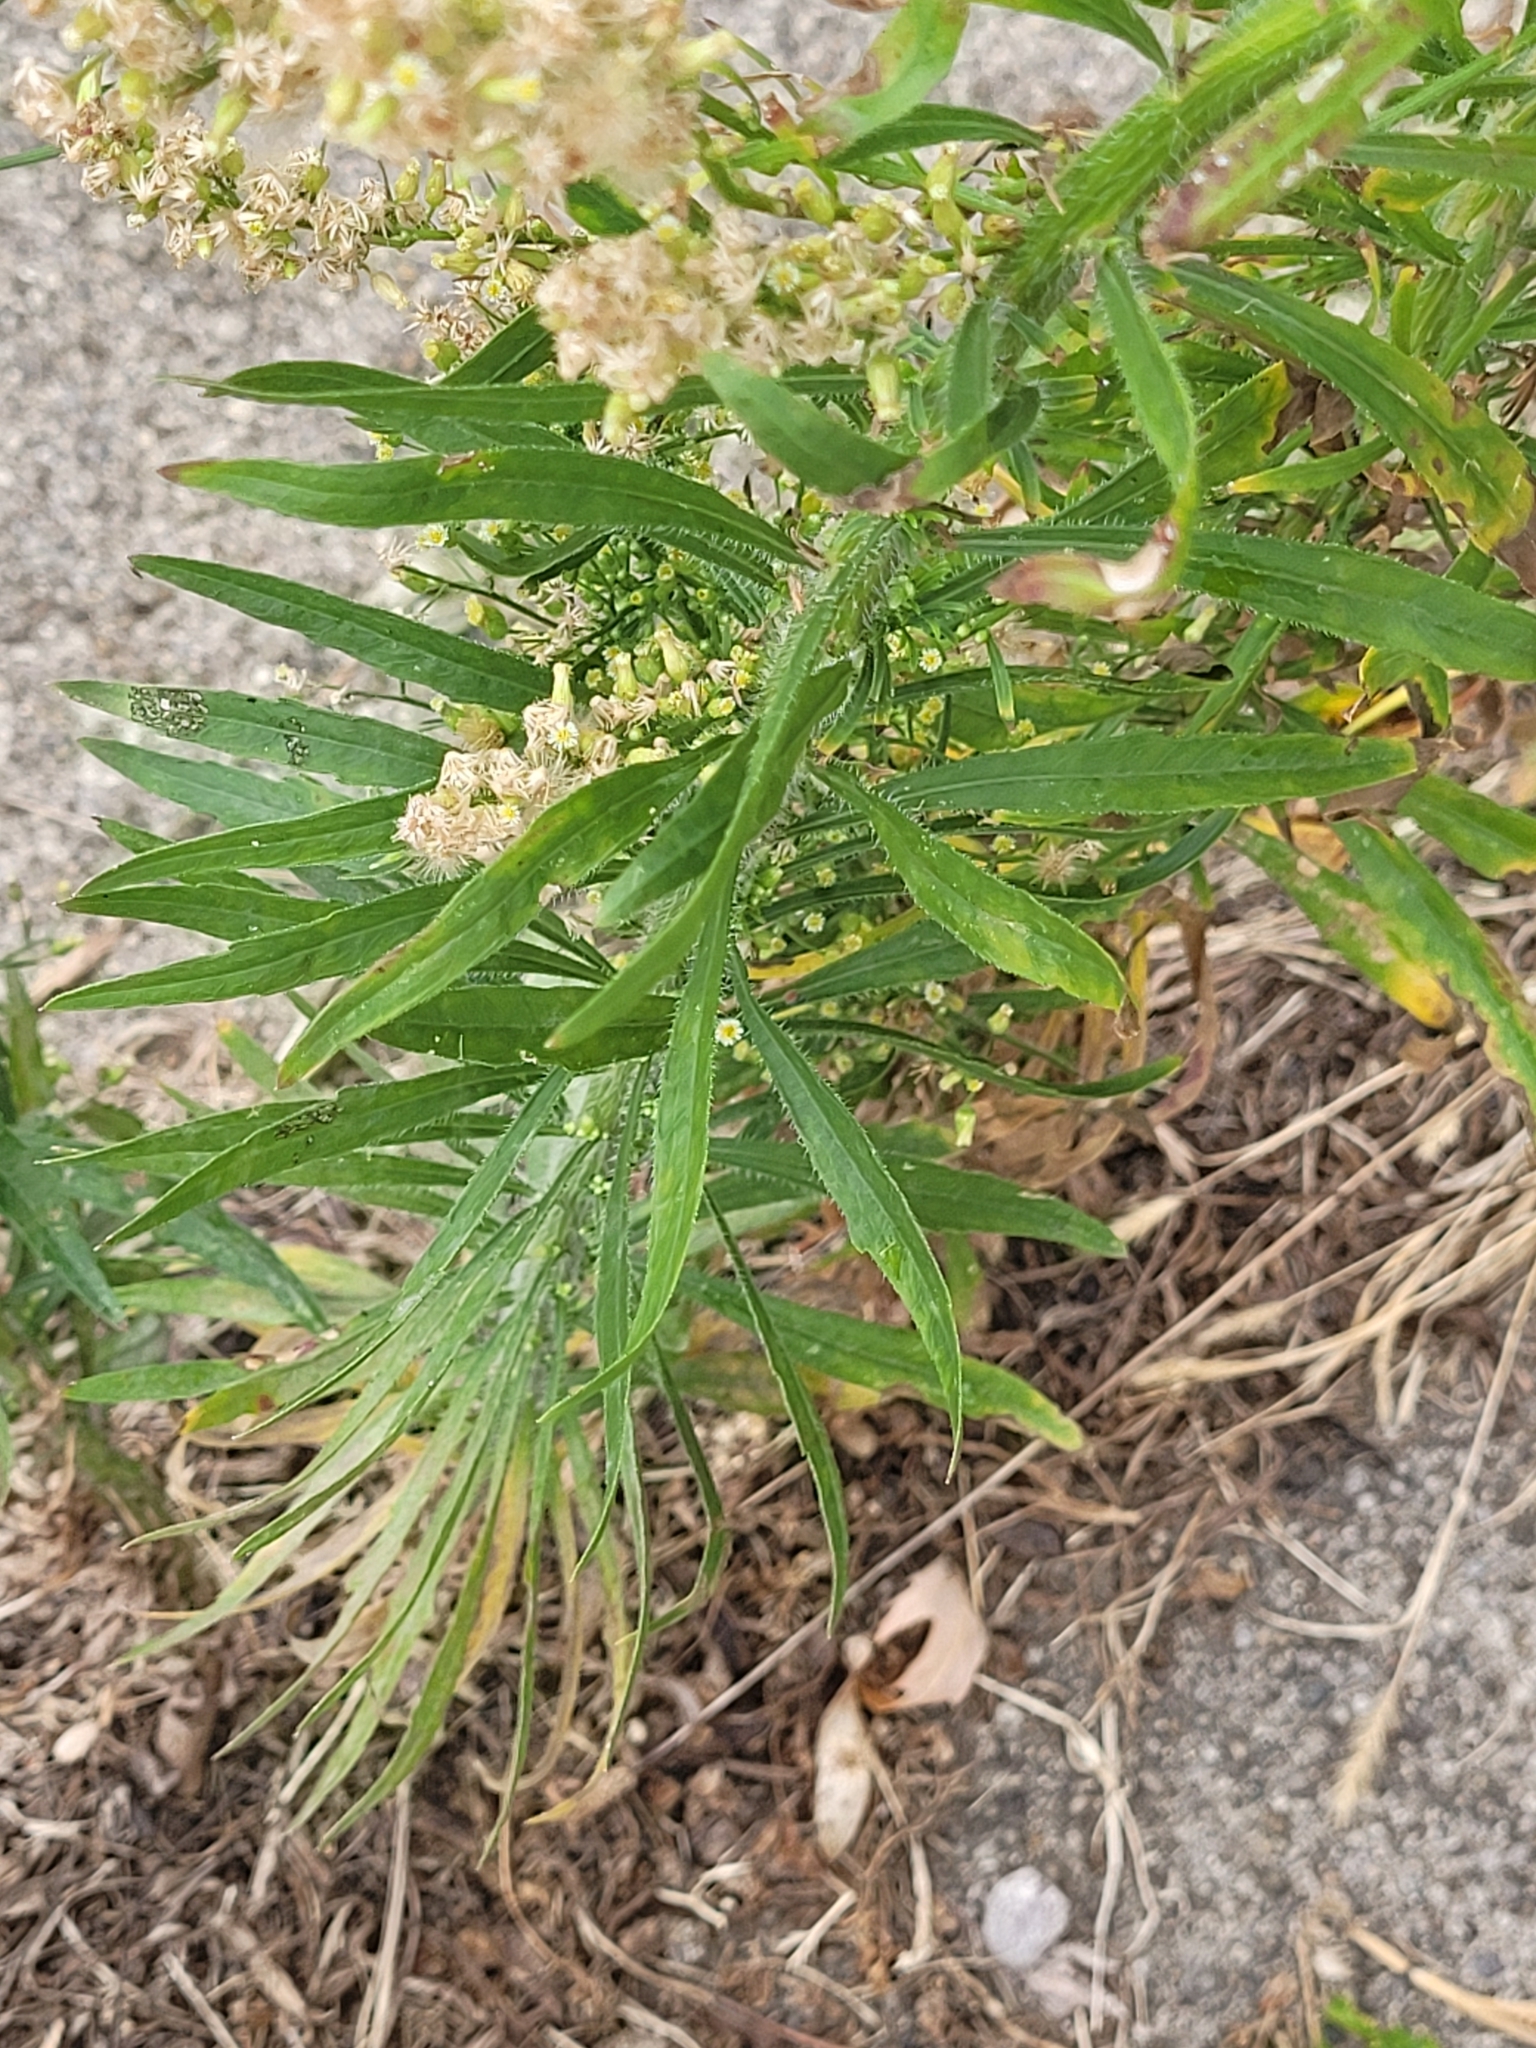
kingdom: Plantae
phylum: Tracheophyta
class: Magnoliopsida
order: Asterales
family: Asteraceae
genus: Erigeron
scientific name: Erigeron canadensis
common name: Canadian fleabane
